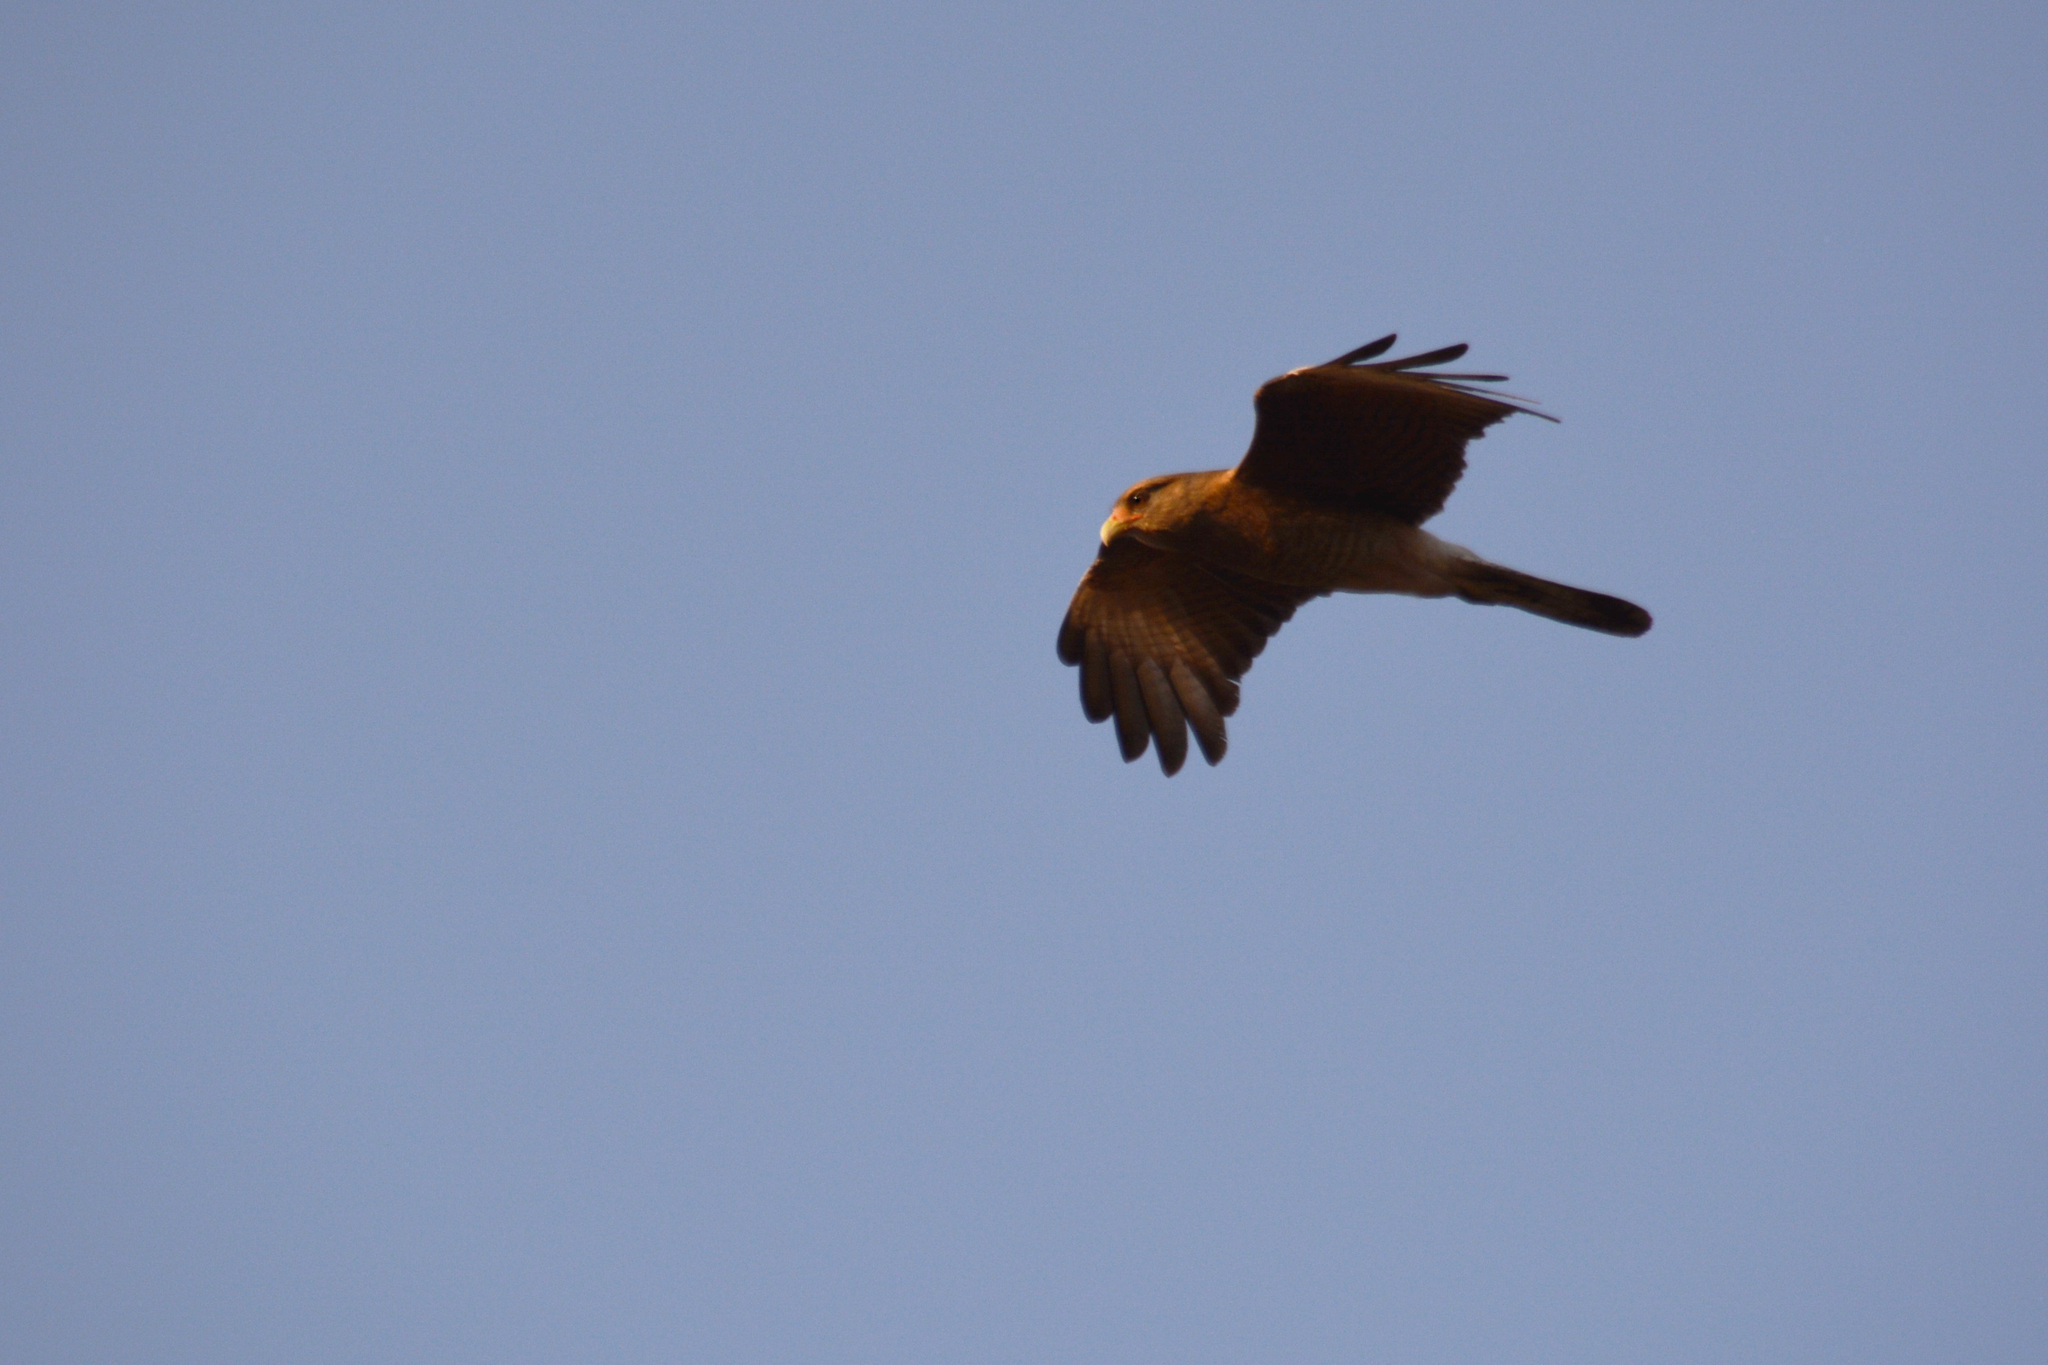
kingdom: Animalia
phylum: Chordata
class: Aves
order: Falconiformes
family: Falconidae
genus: Daptrius
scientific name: Daptrius
